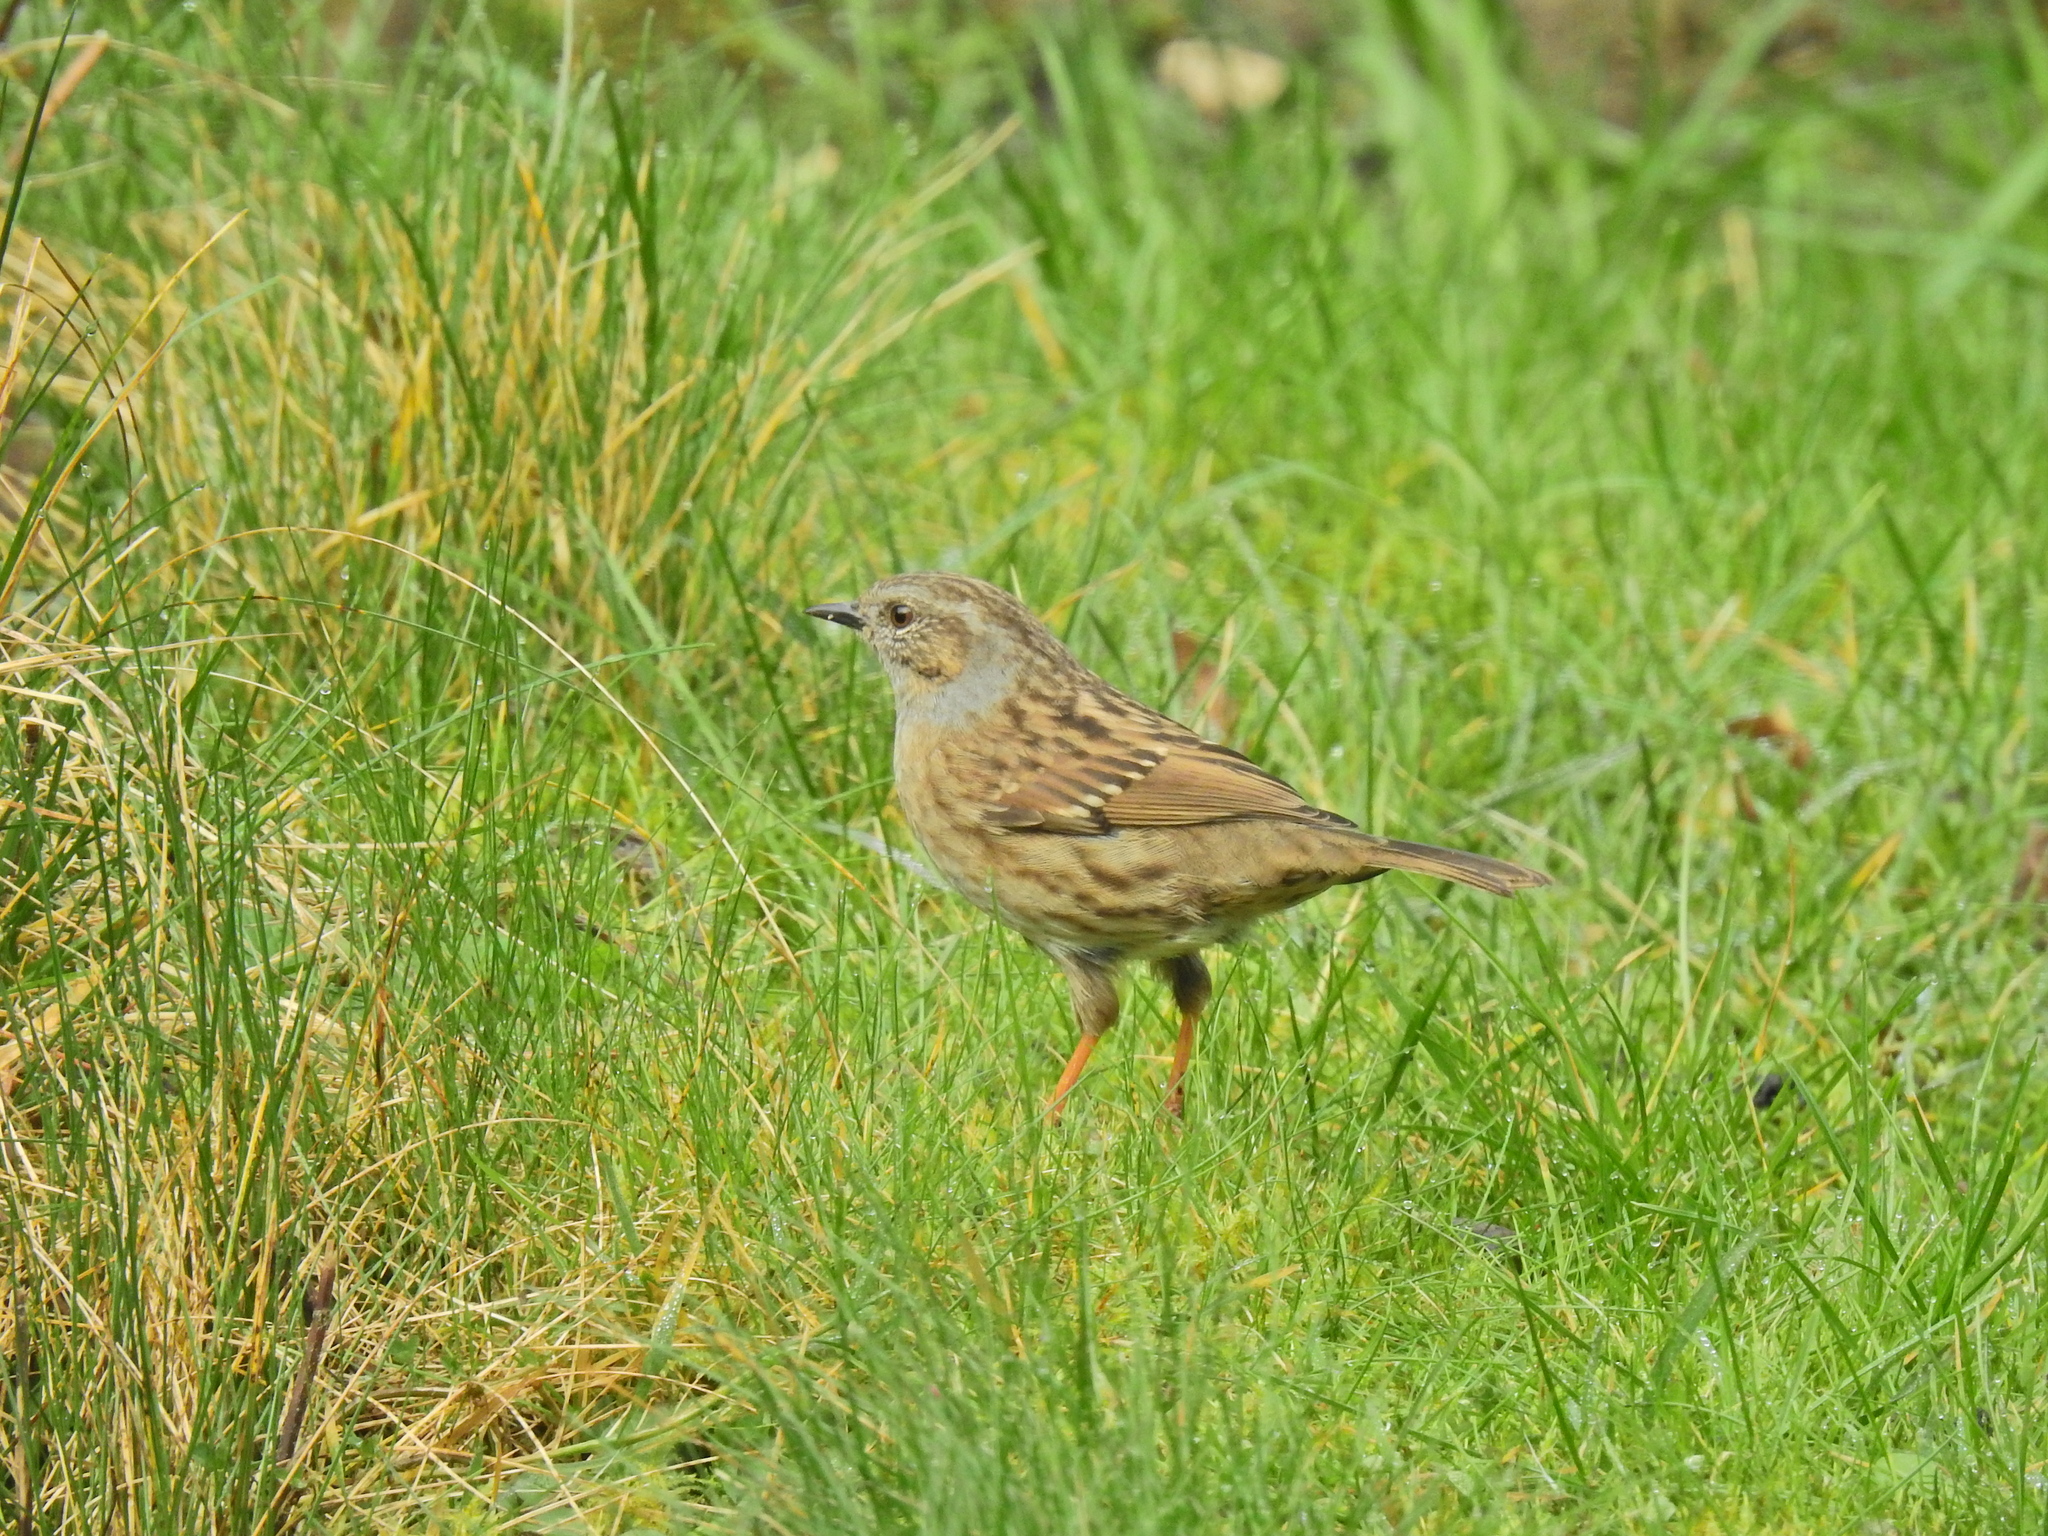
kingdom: Animalia
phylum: Chordata
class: Aves
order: Passeriformes
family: Prunellidae
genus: Prunella
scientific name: Prunella modularis
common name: Dunnock
